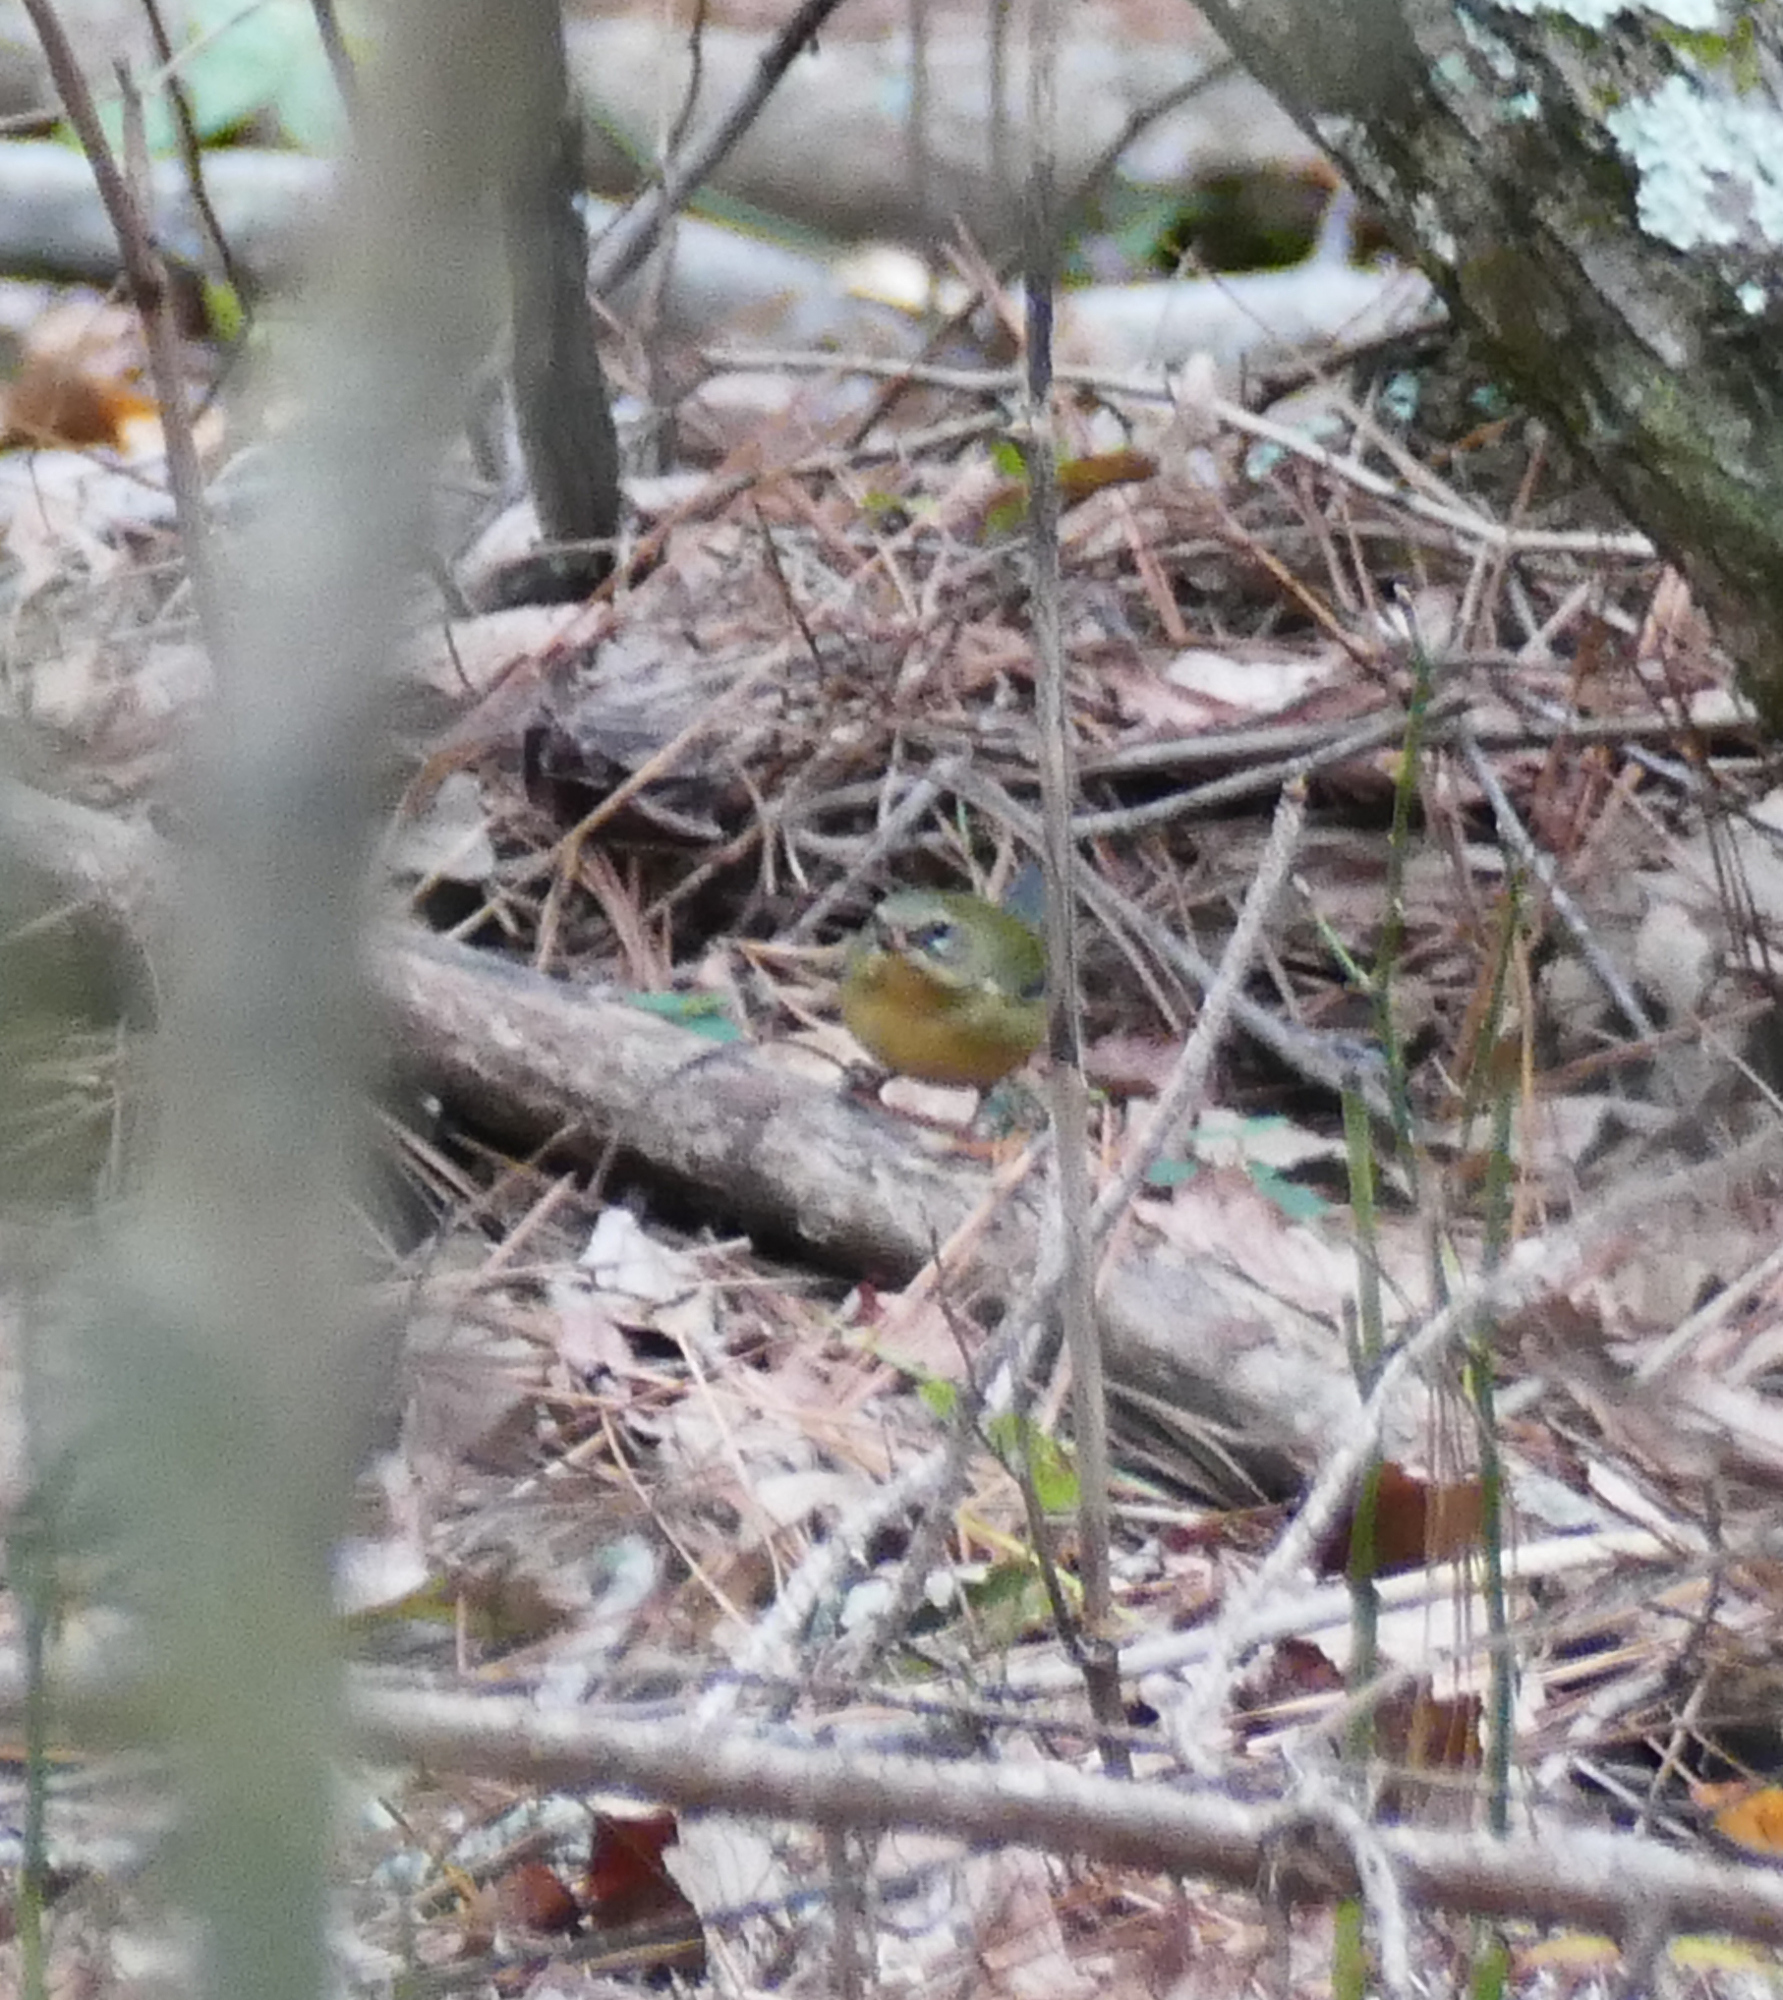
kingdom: Animalia
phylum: Chordata
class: Aves
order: Passeriformes
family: Parulidae
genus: Setophaga
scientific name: Setophaga caerulescens
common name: Black-throated blue warbler
